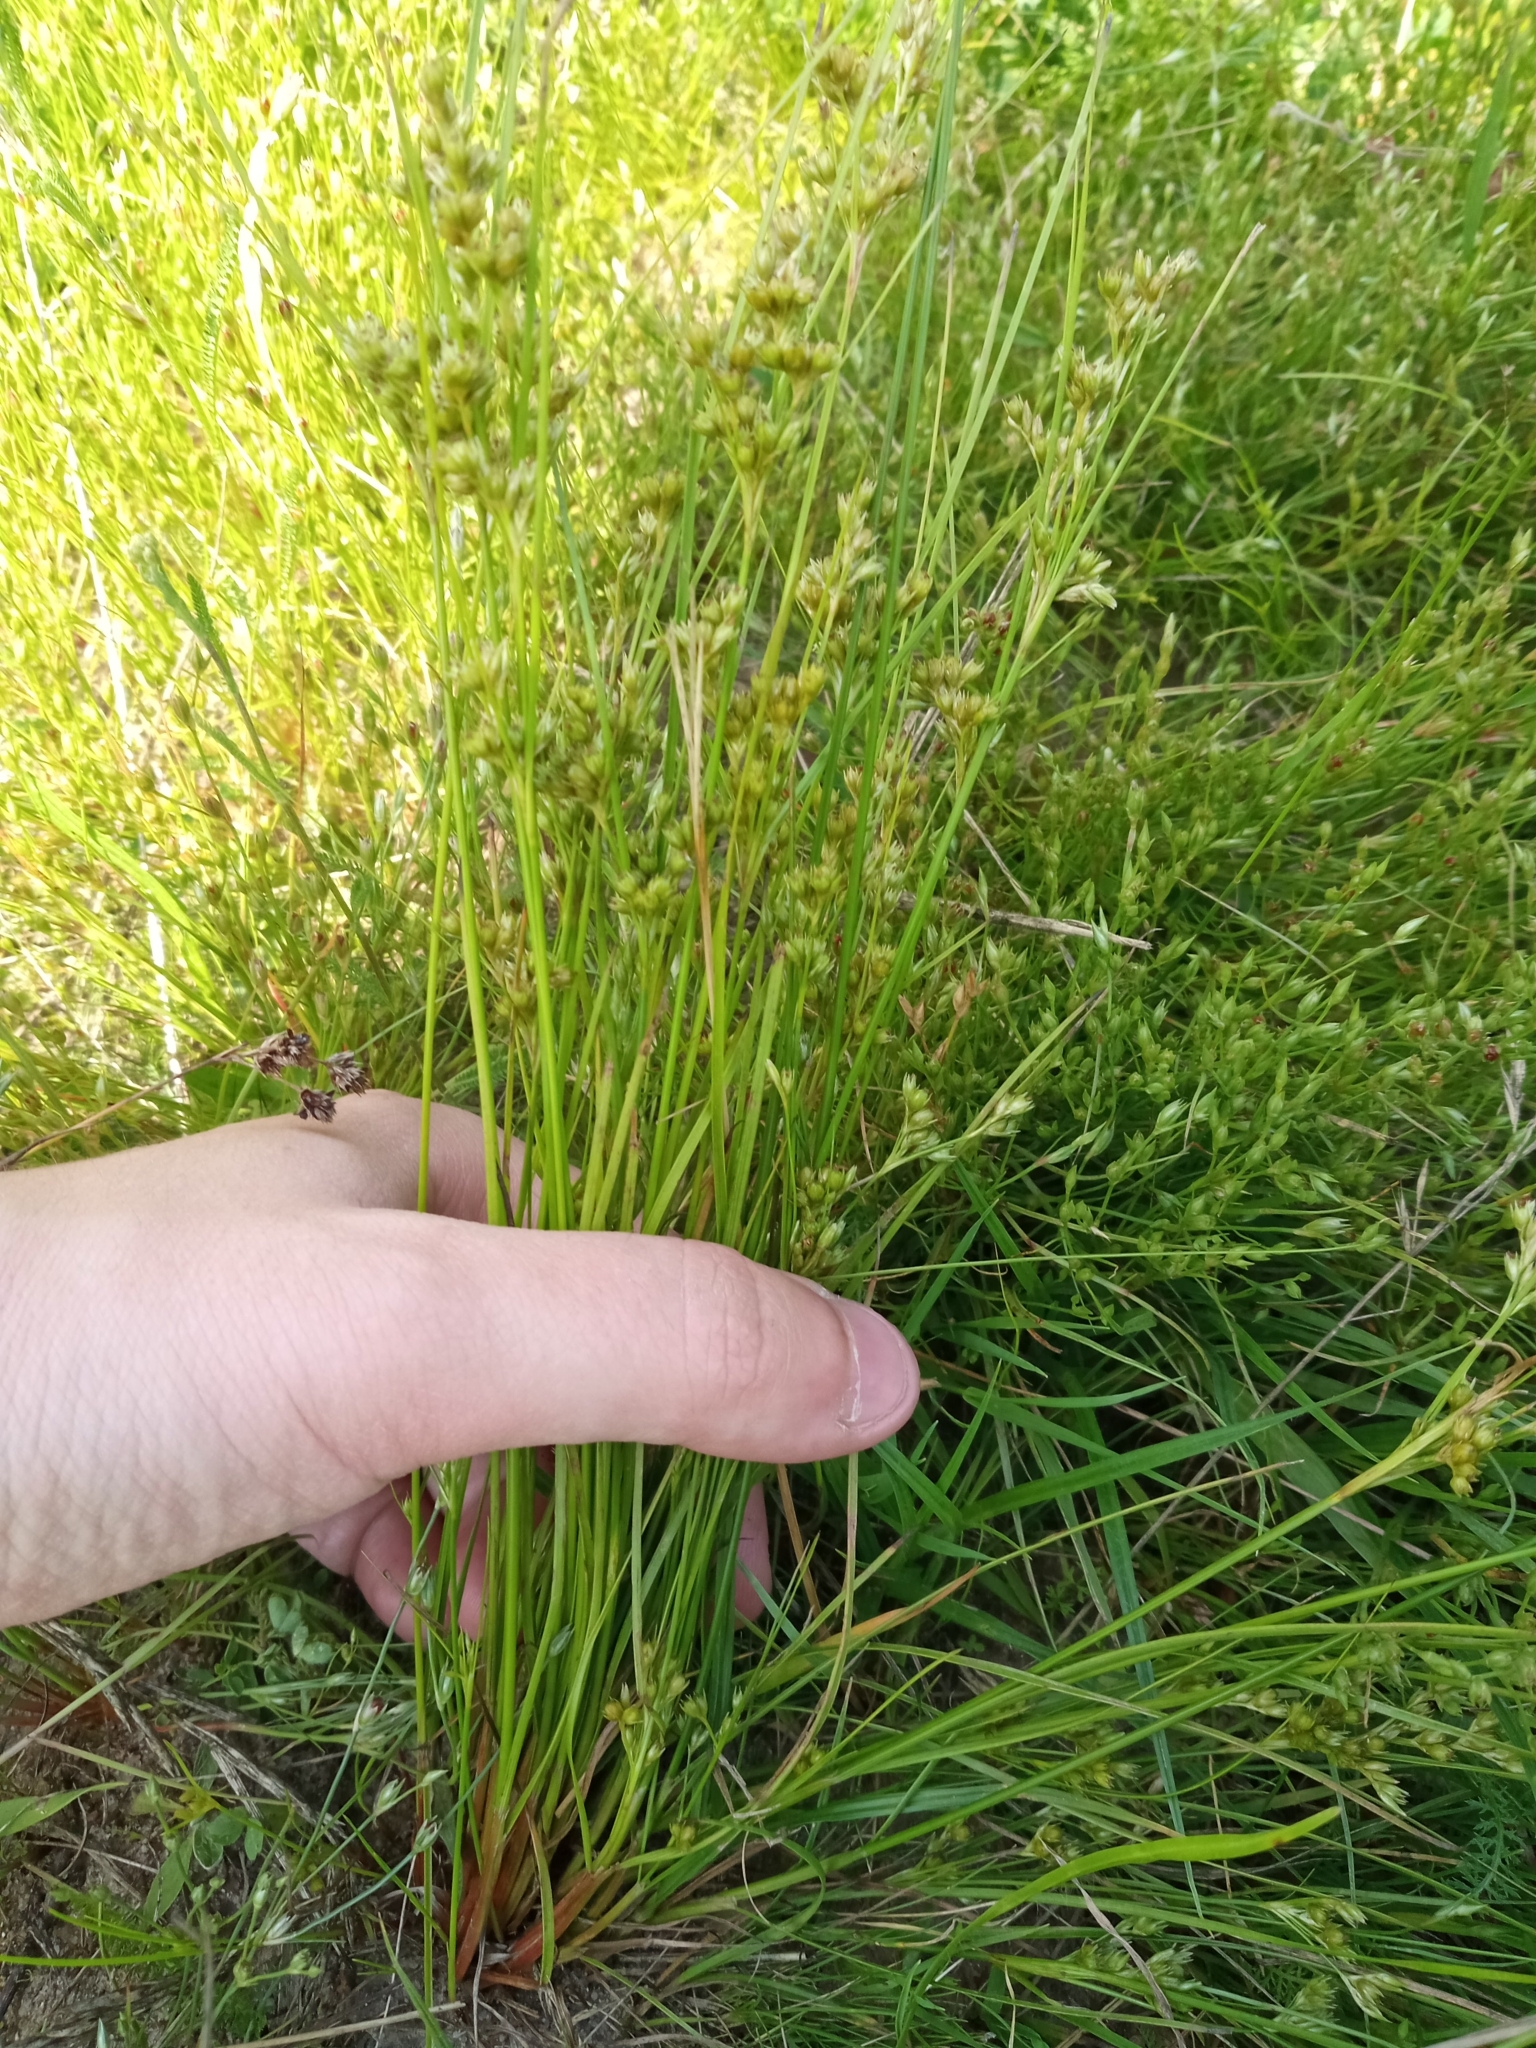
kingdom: Plantae
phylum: Tracheophyta
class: Liliopsida
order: Poales
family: Juncaceae
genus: Juncus
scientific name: Juncus tenuis
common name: Slender rush
